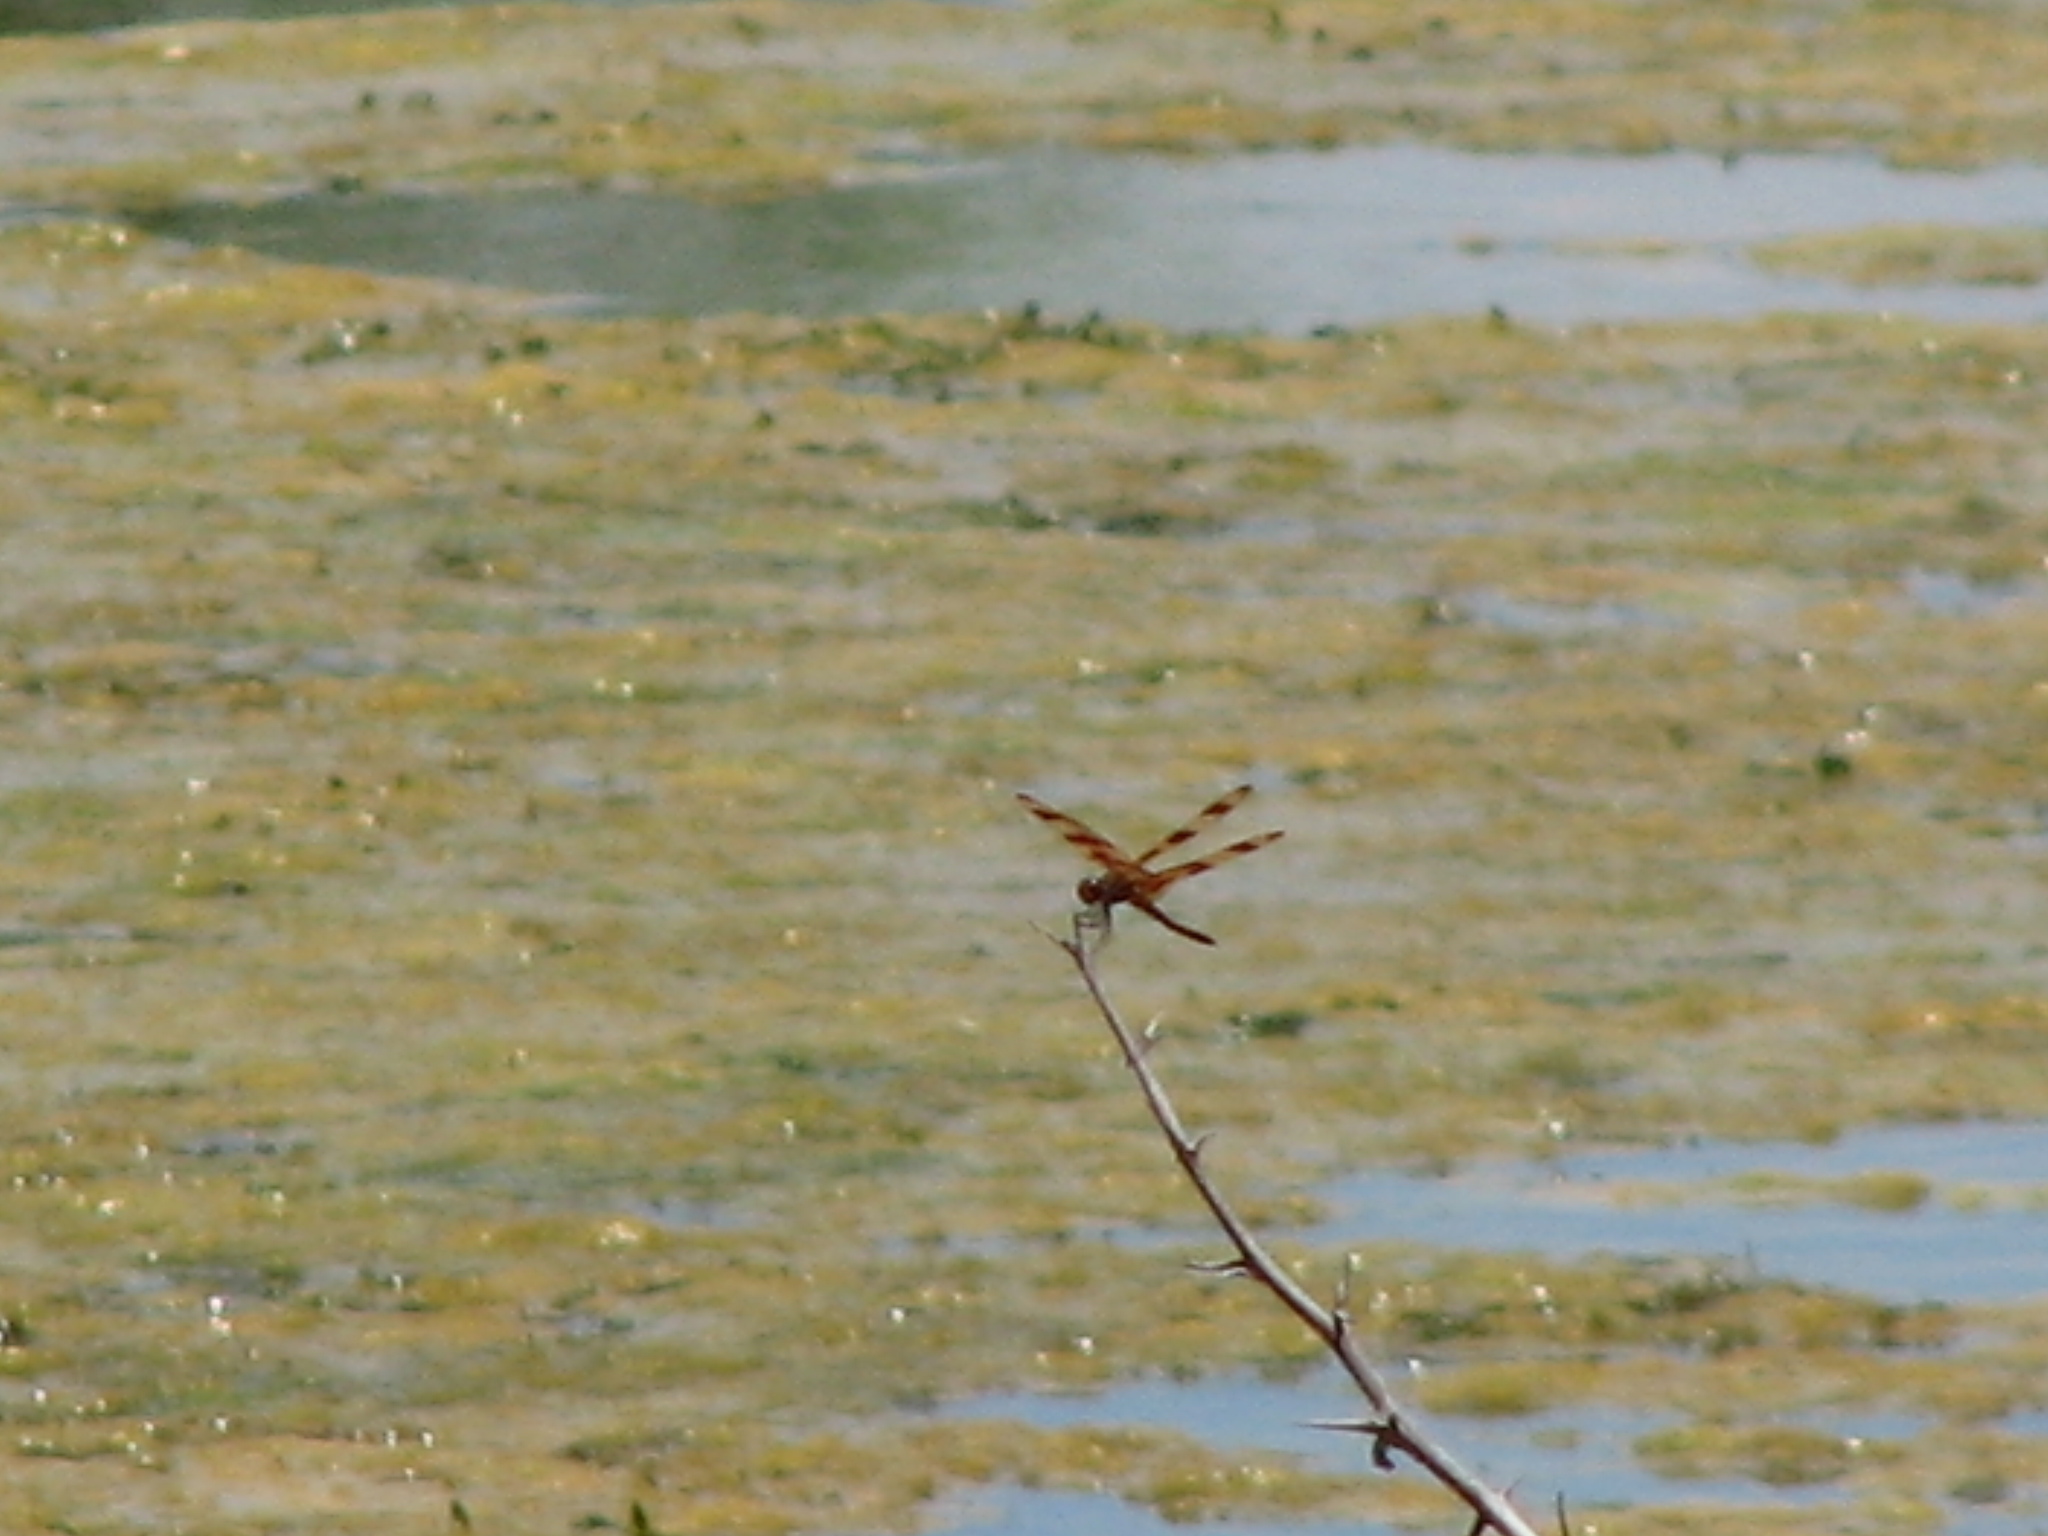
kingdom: Animalia
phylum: Arthropoda
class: Insecta
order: Odonata
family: Libellulidae
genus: Celithemis
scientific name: Celithemis eponina
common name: Halloween pennant
